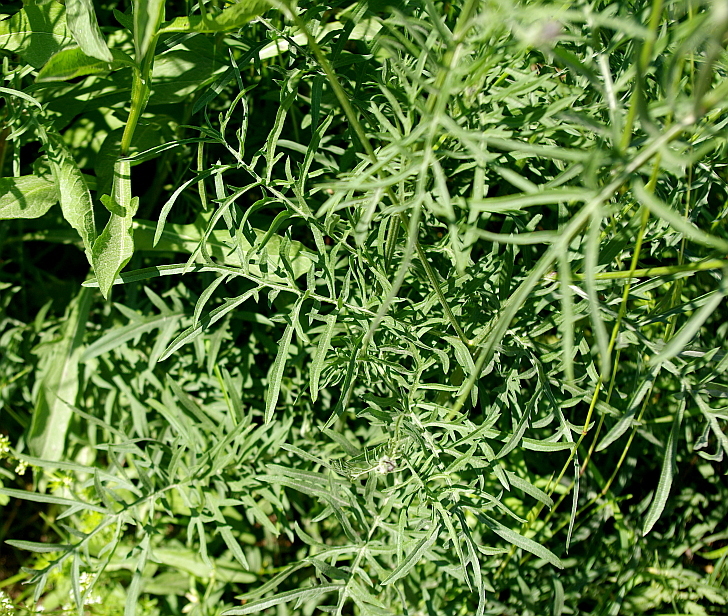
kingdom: Plantae
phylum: Tracheophyta
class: Magnoliopsida
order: Asterales
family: Asteraceae
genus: Centaurea
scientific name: Centaurea scabiosa
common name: Greater knapweed
